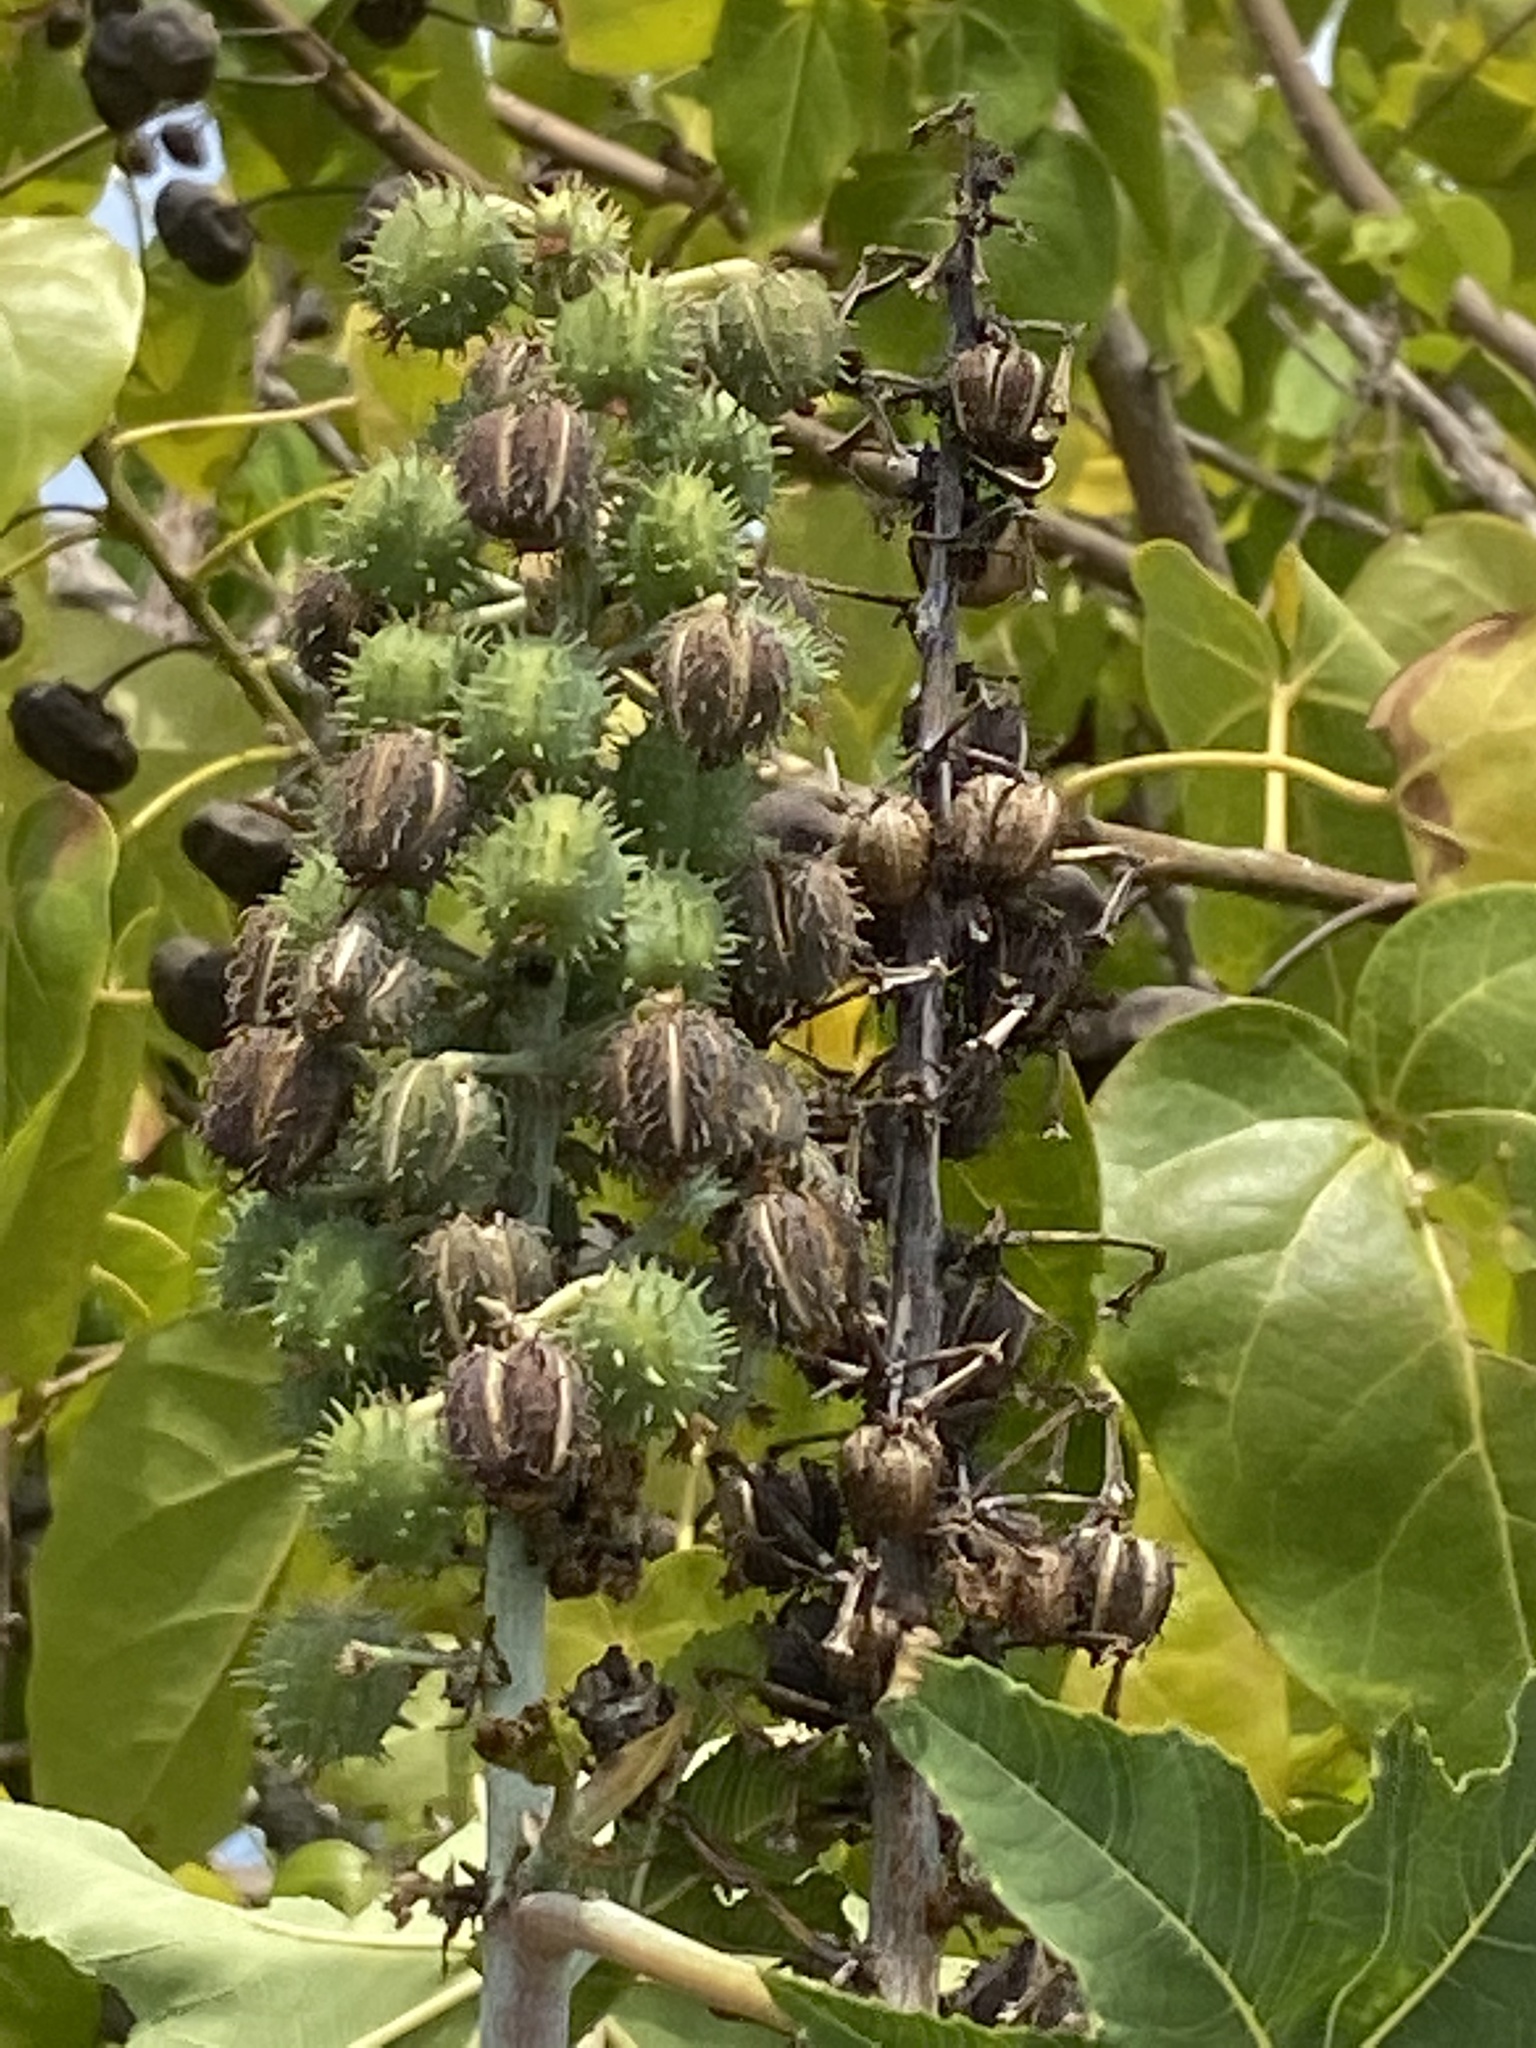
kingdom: Plantae
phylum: Tracheophyta
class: Magnoliopsida
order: Malpighiales
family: Euphorbiaceae
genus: Ricinus
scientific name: Ricinus communis
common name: Castor-oil-plant
